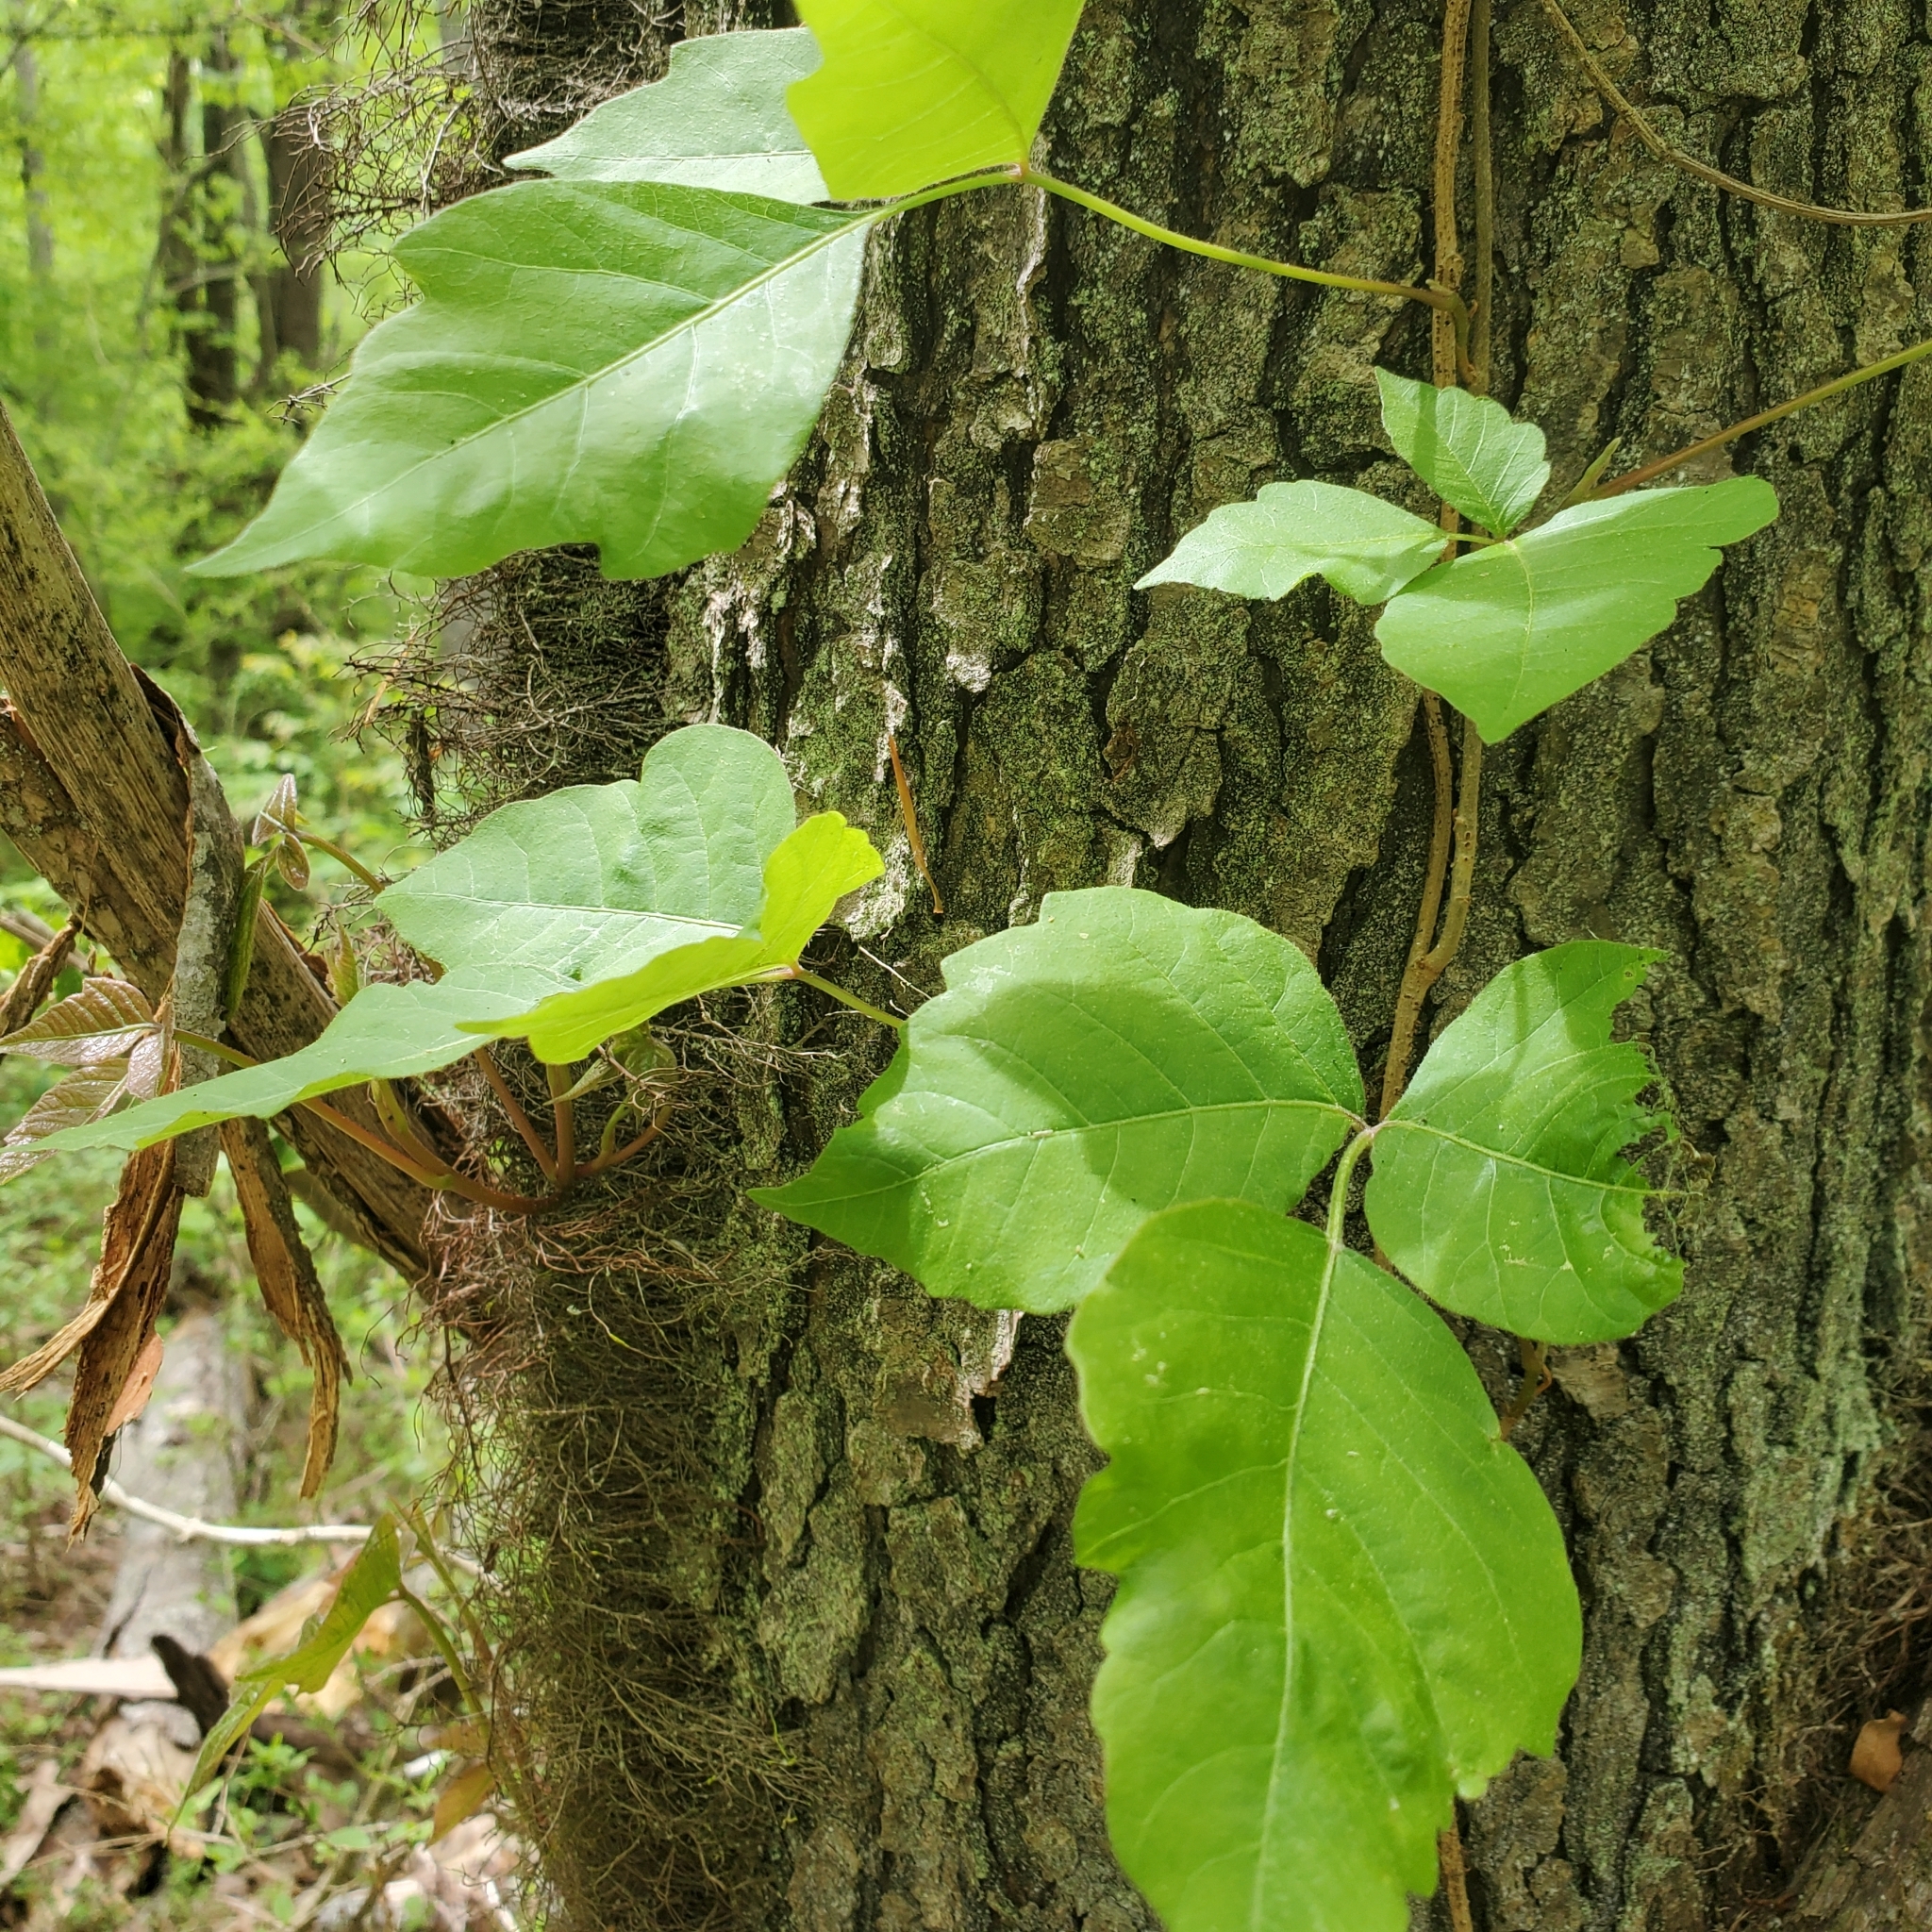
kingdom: Plantae
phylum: Tracheophyta
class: Magnoliopsida
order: Sapindales
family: Anacardiaceae
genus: Toxicodendron
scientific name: Toxicodendron radicans
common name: Poison ivy
